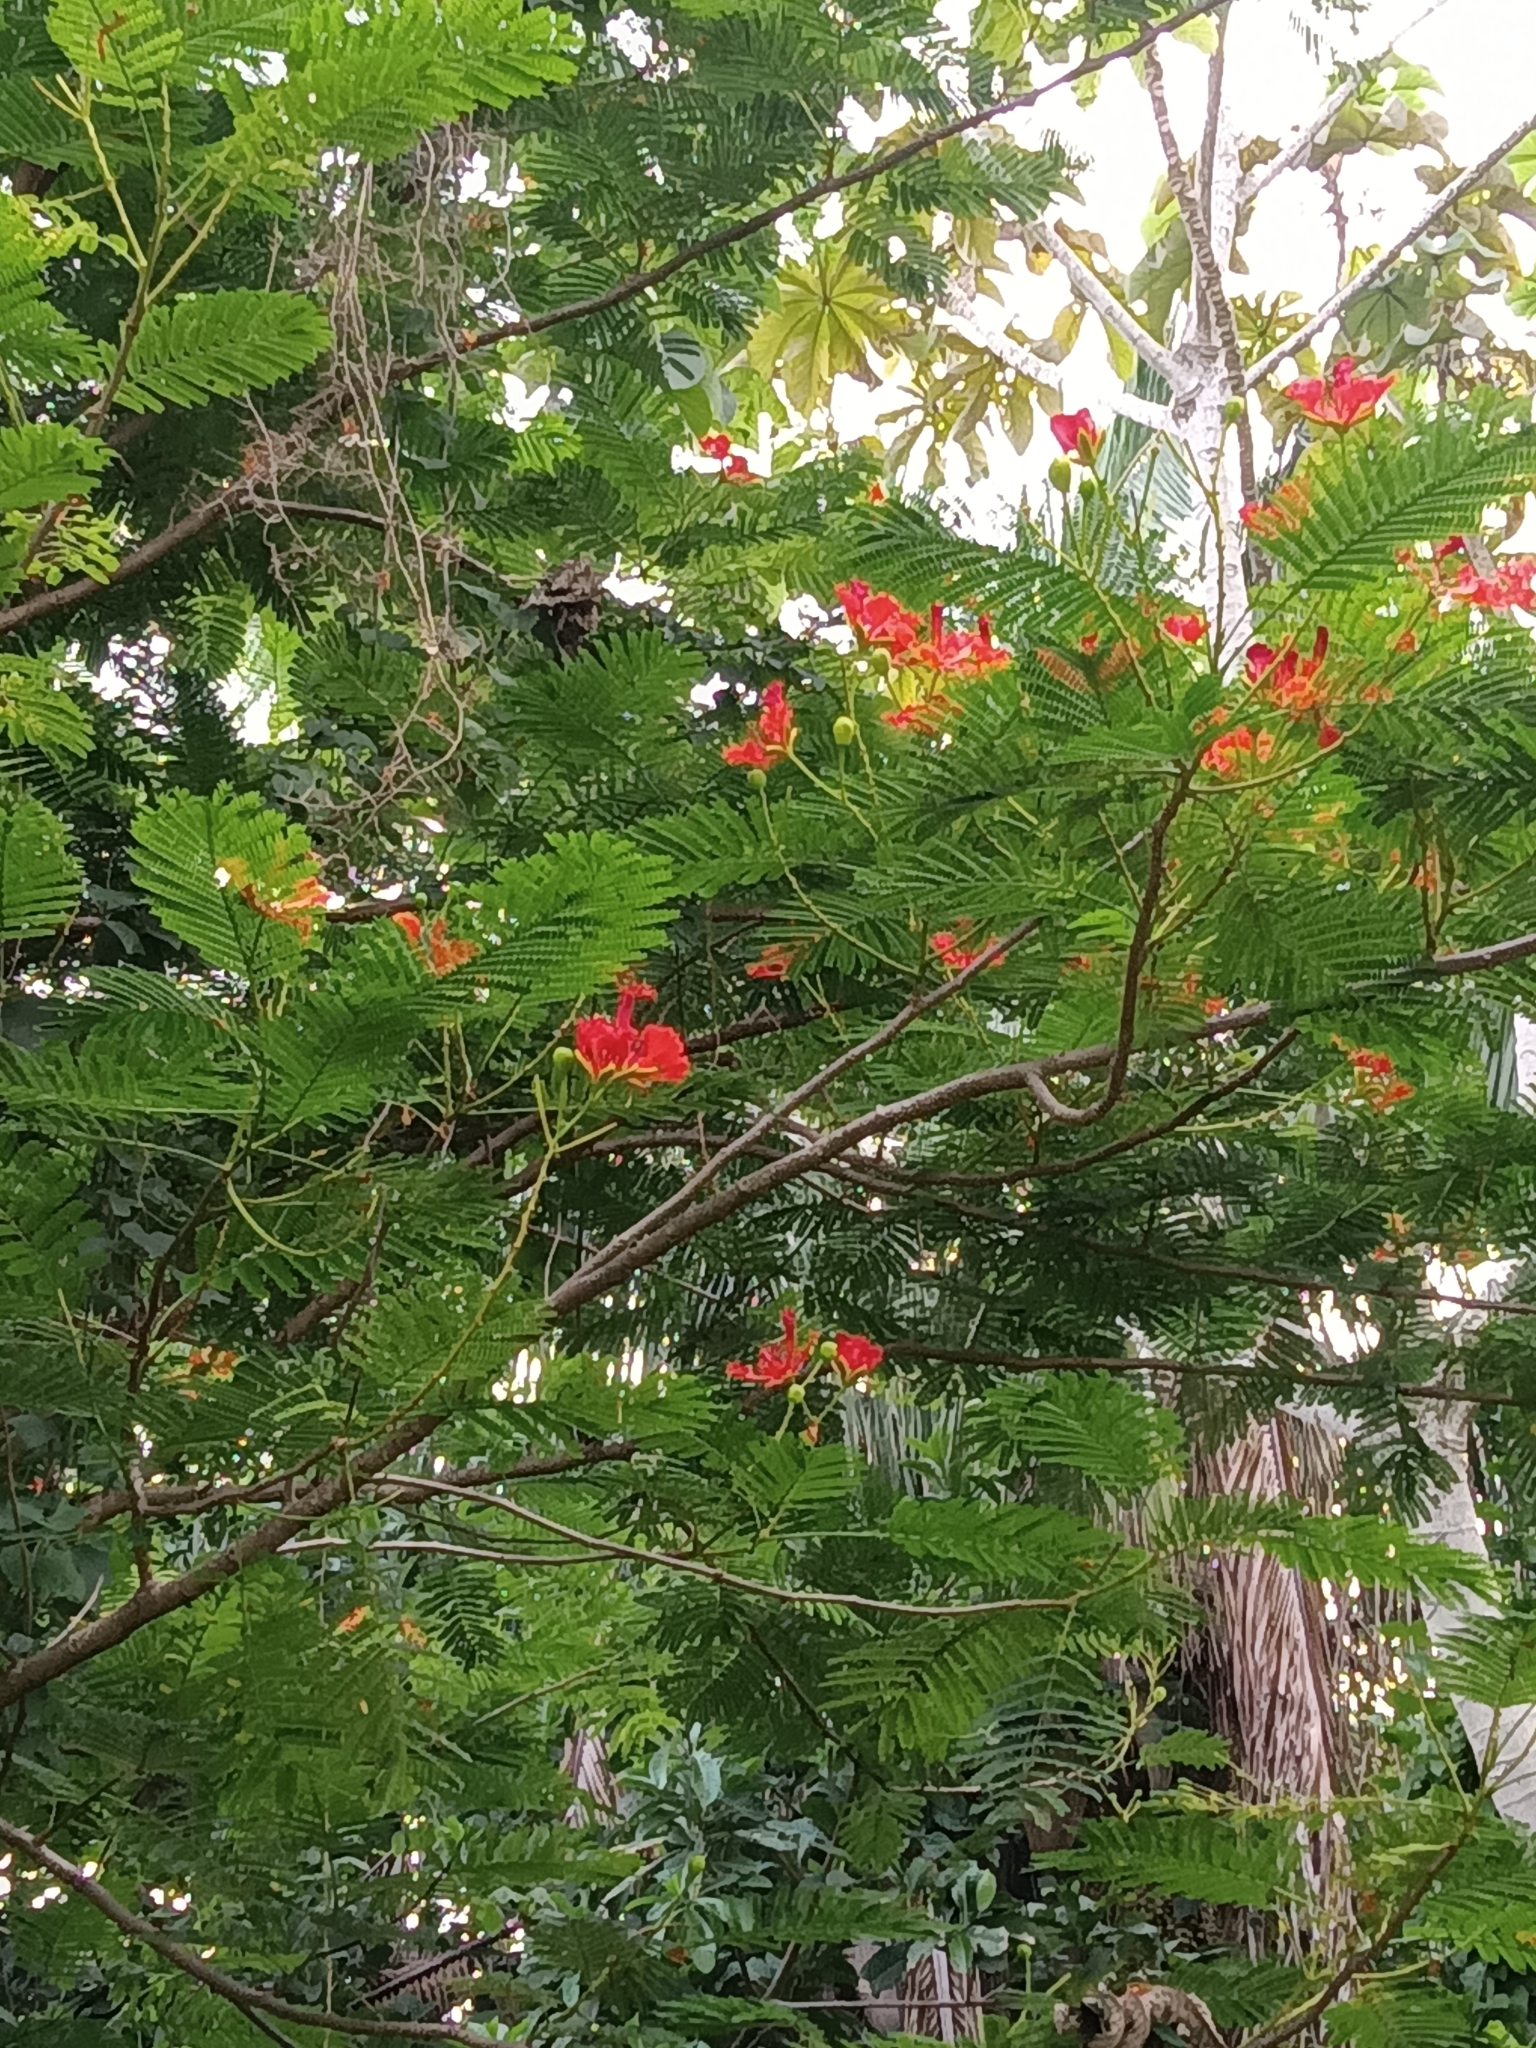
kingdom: Plantae
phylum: Tracheophyta
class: Magnoliopsida
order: Fabales
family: Fabaceae
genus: Delonix
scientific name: Delonix regia
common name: Royal poinciana
